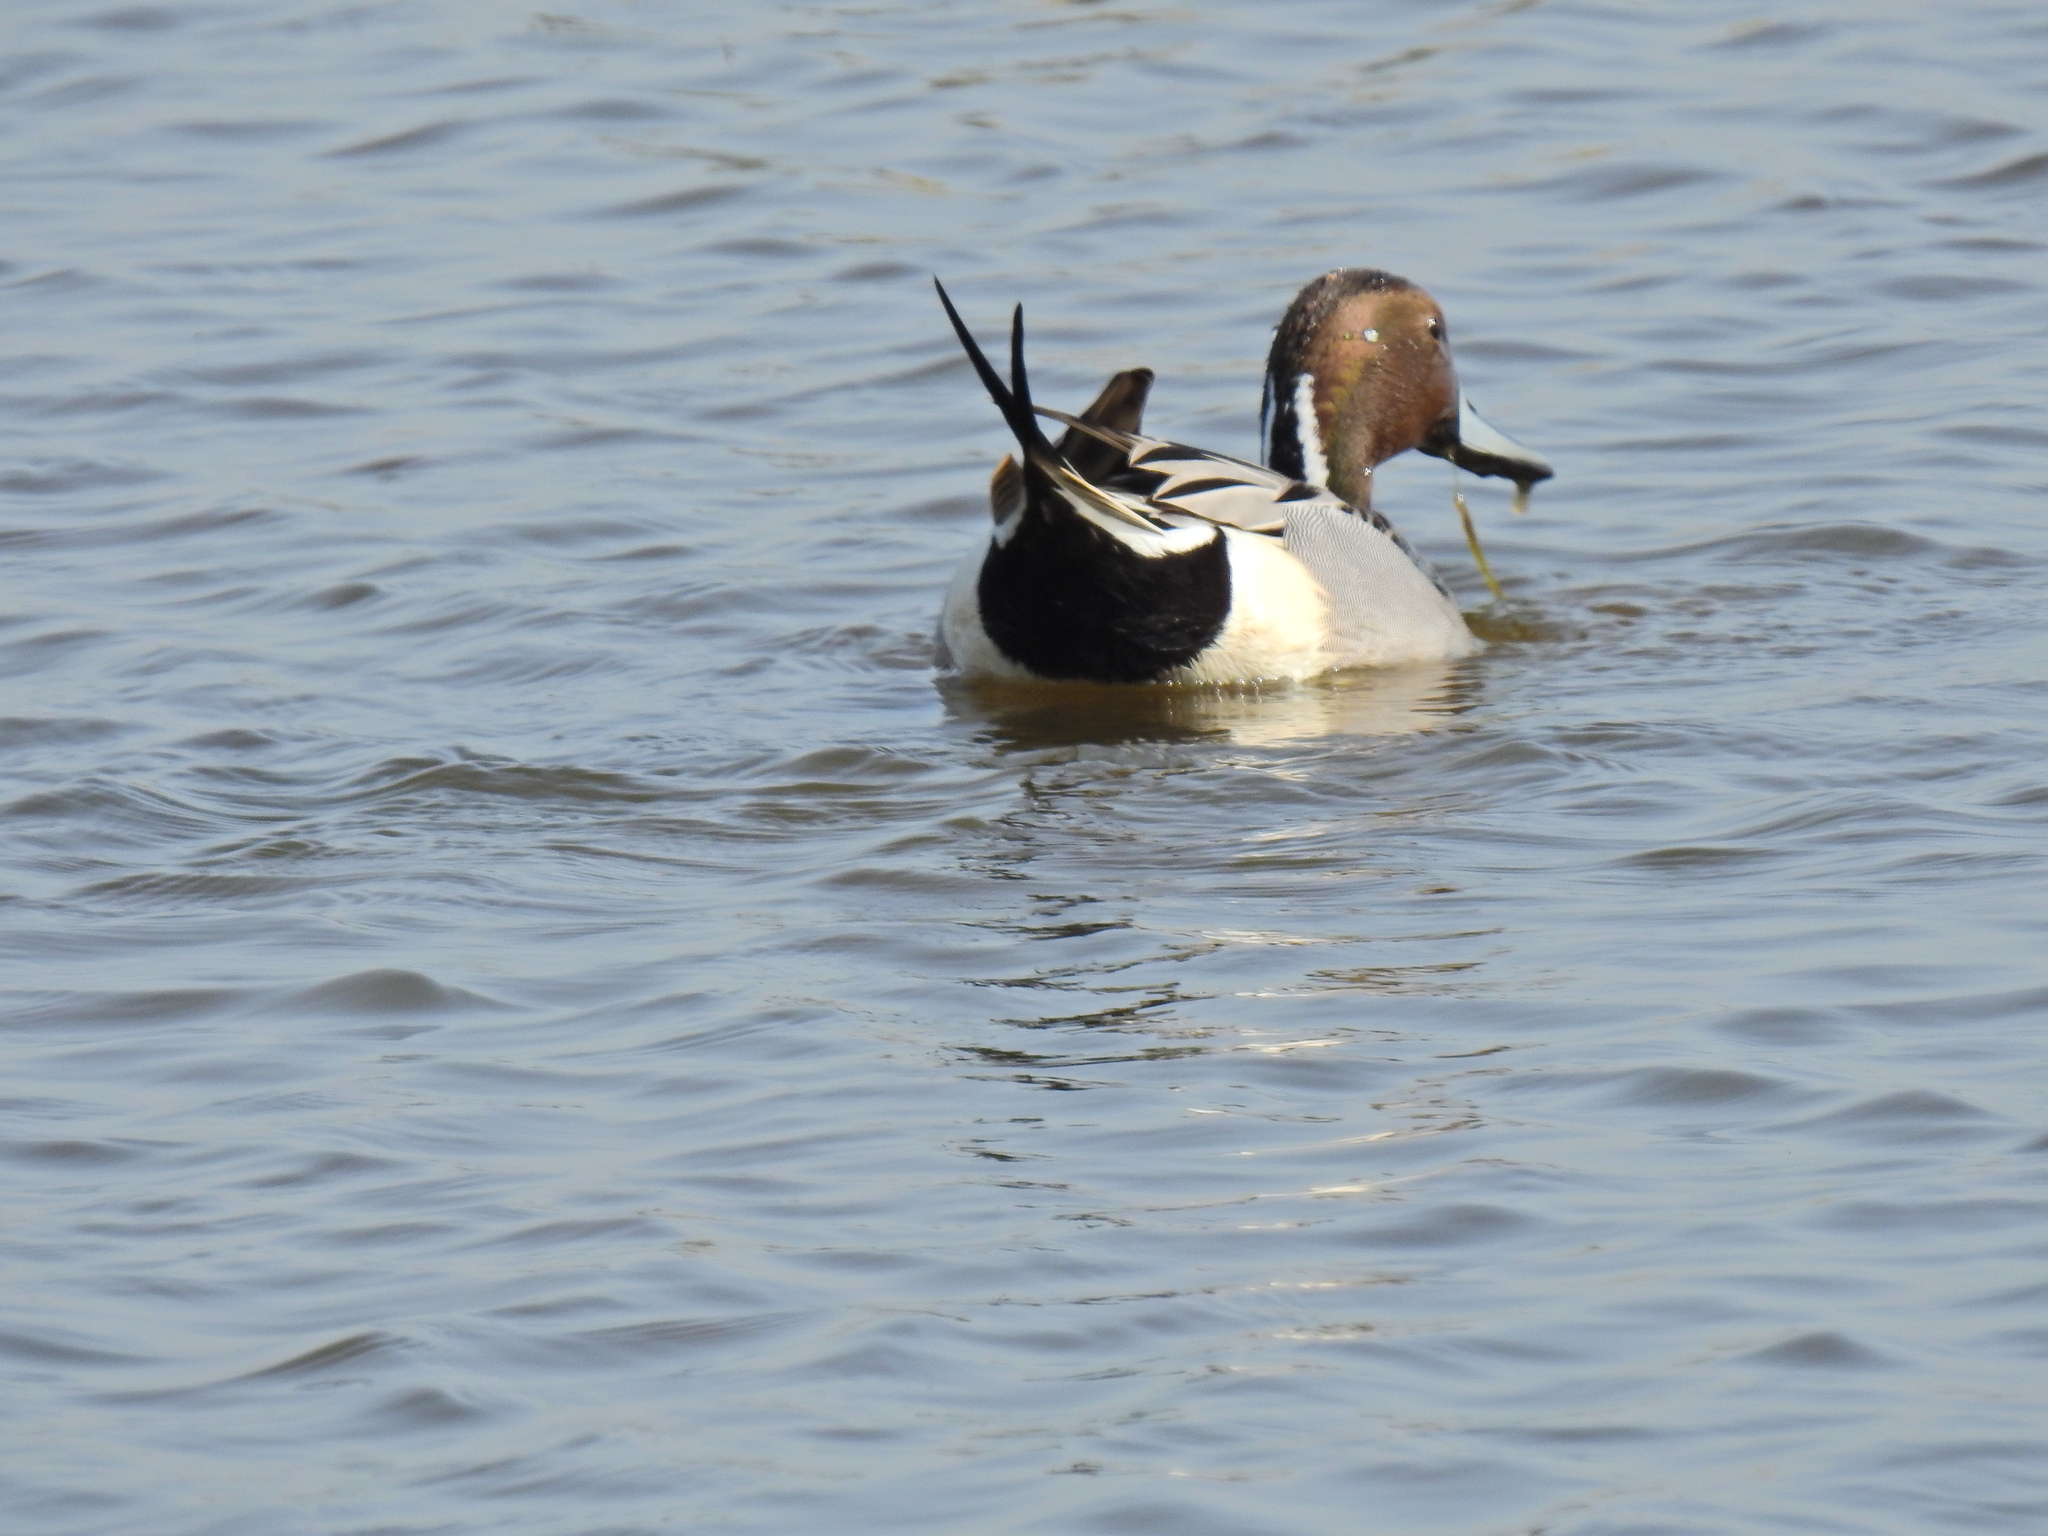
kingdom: Animalia
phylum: Chordata
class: Aves
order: Anseriformes
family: Anatidae
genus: Anas
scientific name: Anas acuta
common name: Northern pintail
